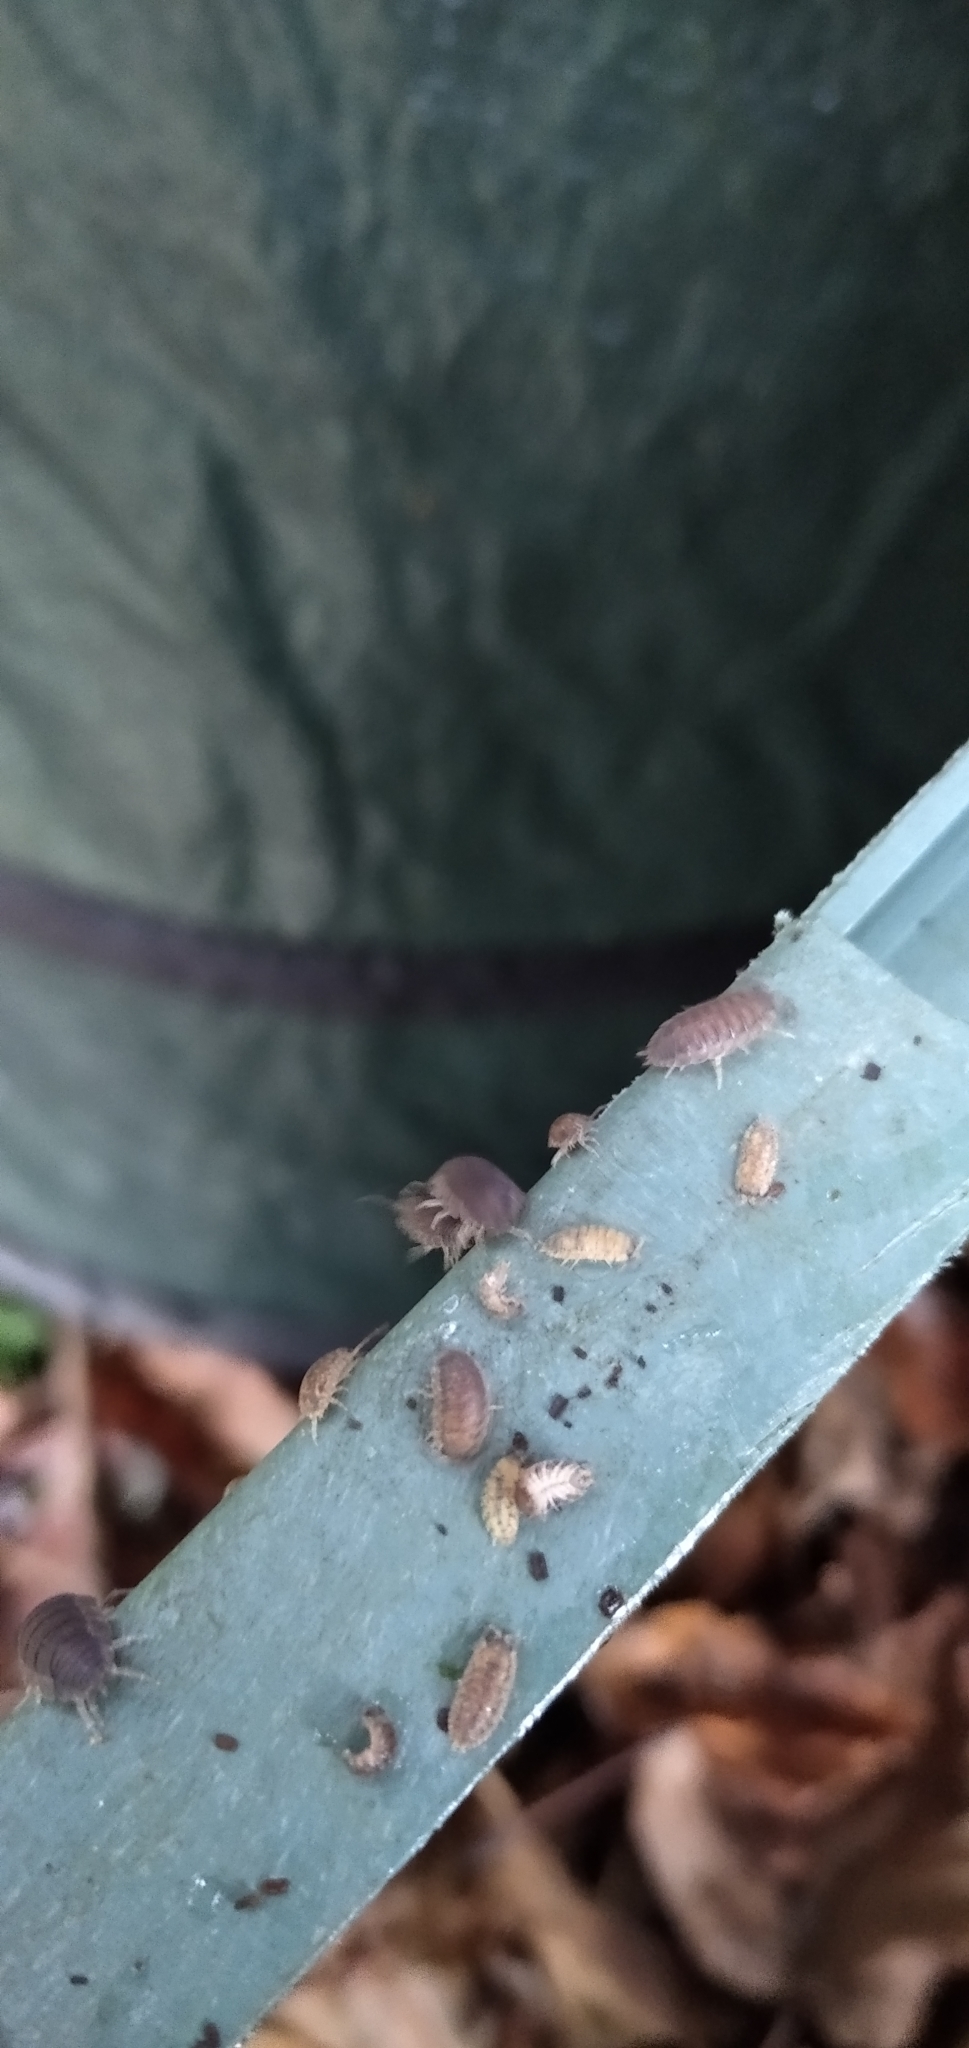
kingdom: Animalia
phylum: Arthropoda
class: Malacostraca
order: Isopoda
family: Porcellionidae
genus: Porcellio
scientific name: Porcellio scaber
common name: Common rough woodlouse
